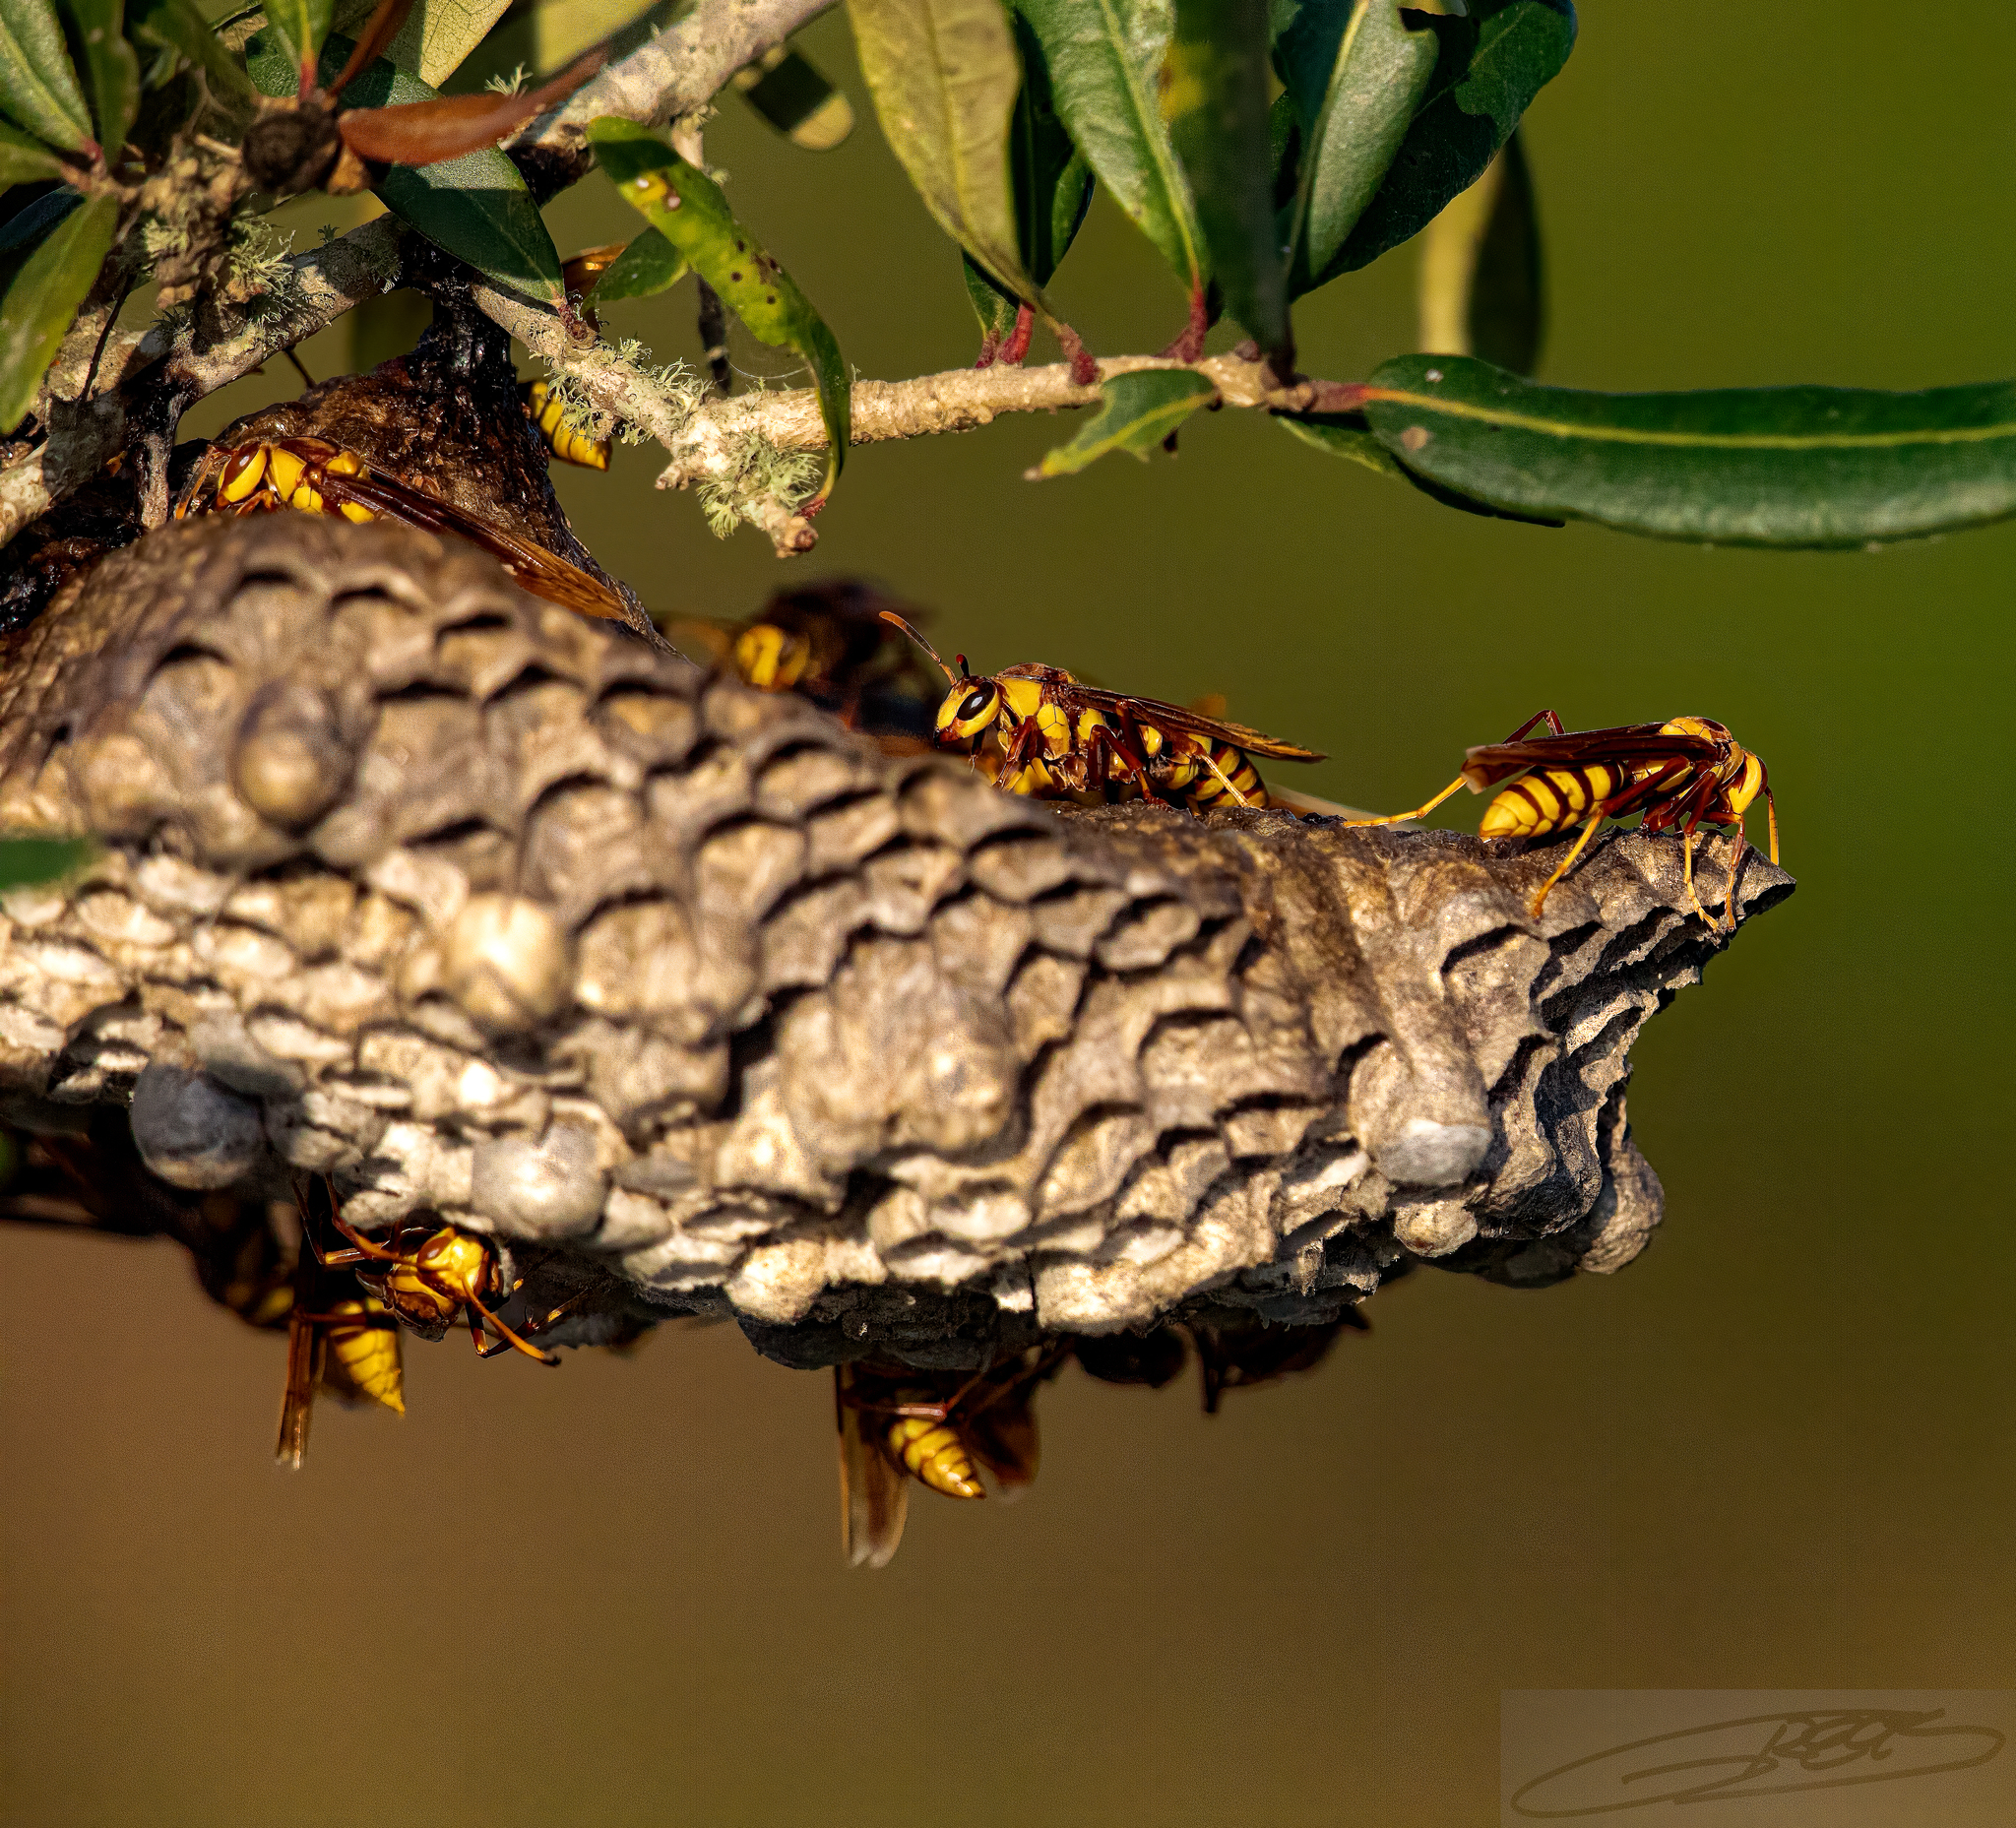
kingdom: Animalia
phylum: Arthropoda
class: Insecta
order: Hymenoptera
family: Eumenidae
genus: Polistes
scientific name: Polistes major
